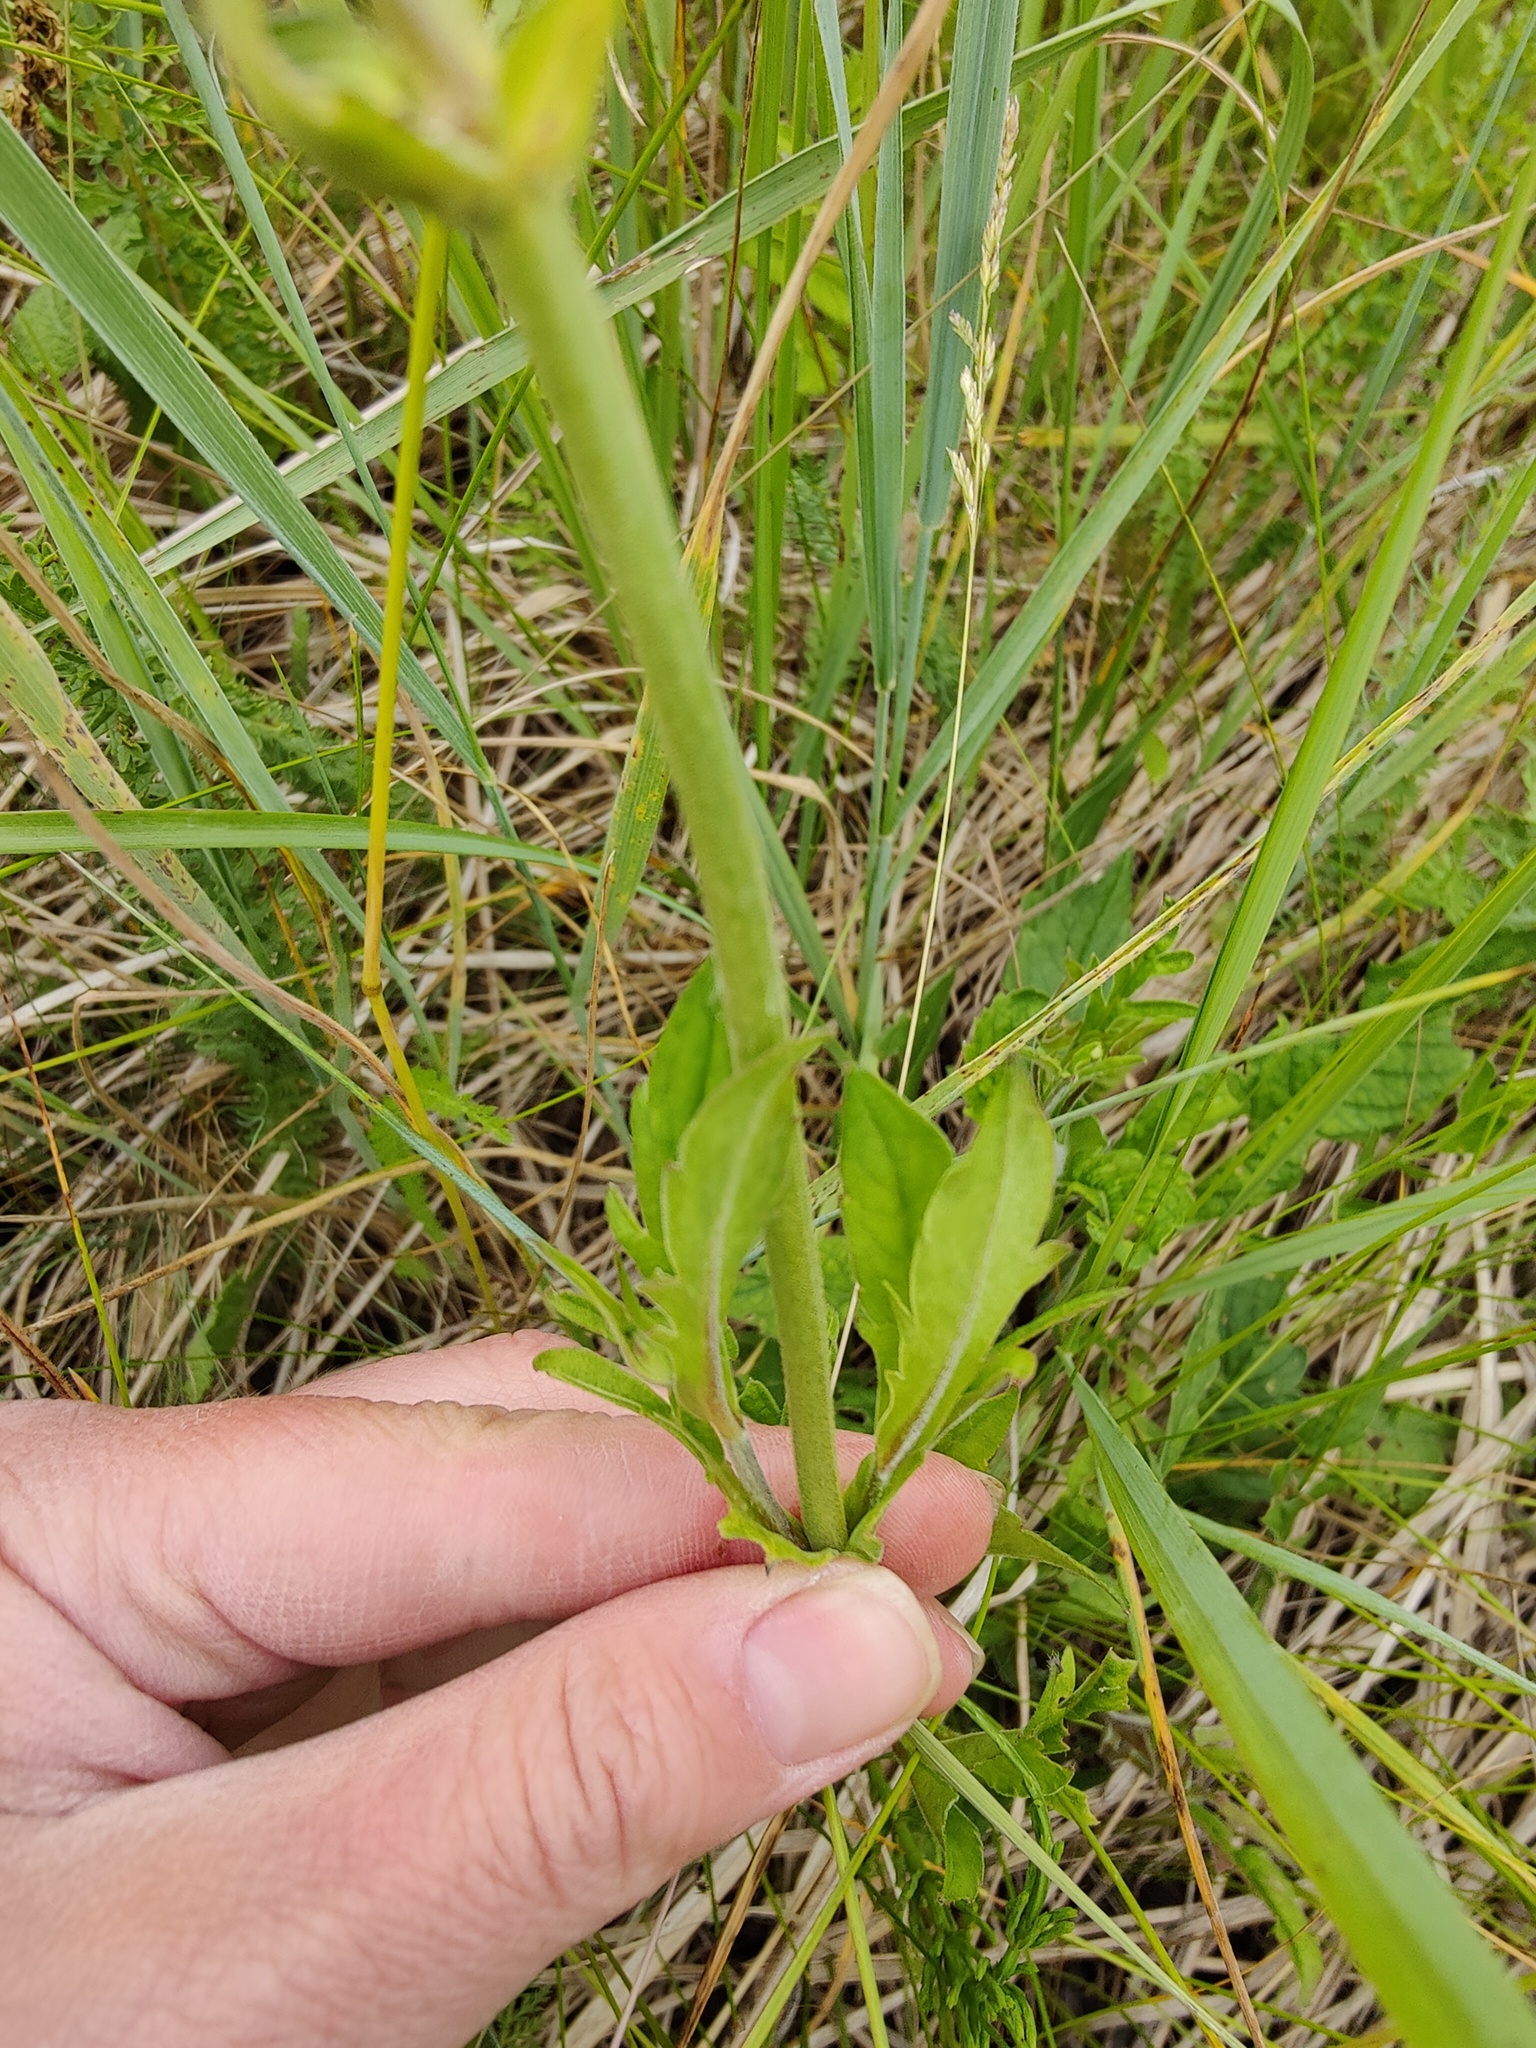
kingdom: Plantae
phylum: Tracheophyta
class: Magnoliopsida
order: Dipsacales
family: Caprifoliaceae
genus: Knautia
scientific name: Knautia arvensis
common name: Field scabiosa
